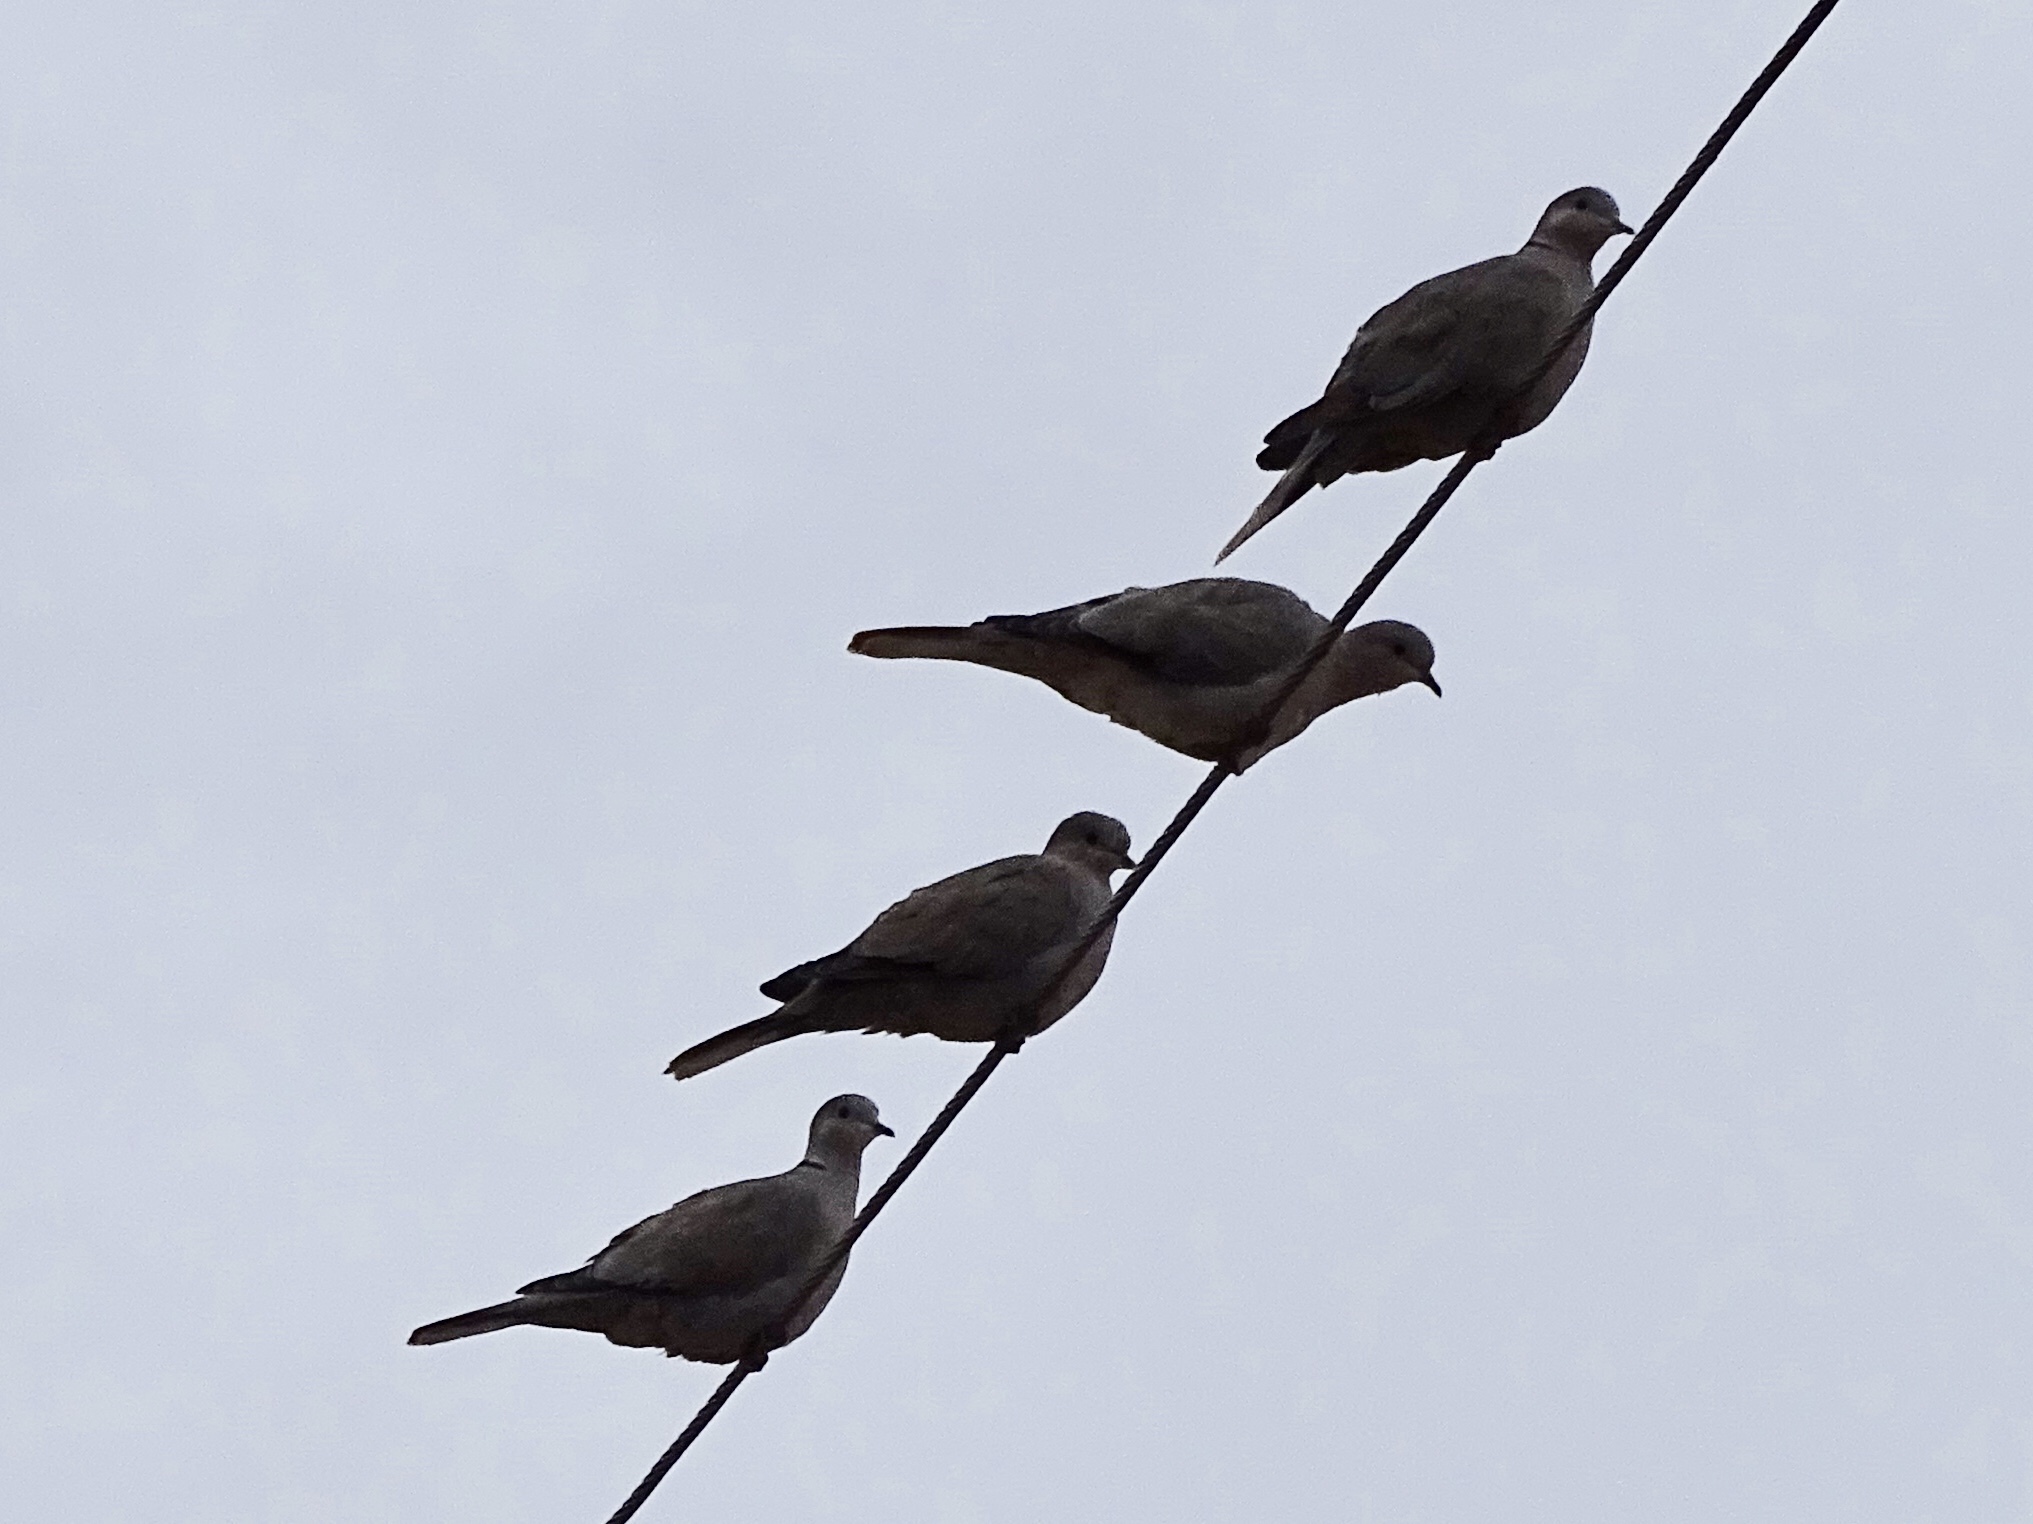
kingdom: Animalia
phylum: Chordata
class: Aves
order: Columbiformes
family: Columbidae
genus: Streptopelia
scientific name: Streptopelia decaocto
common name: Eurasian collared dove
